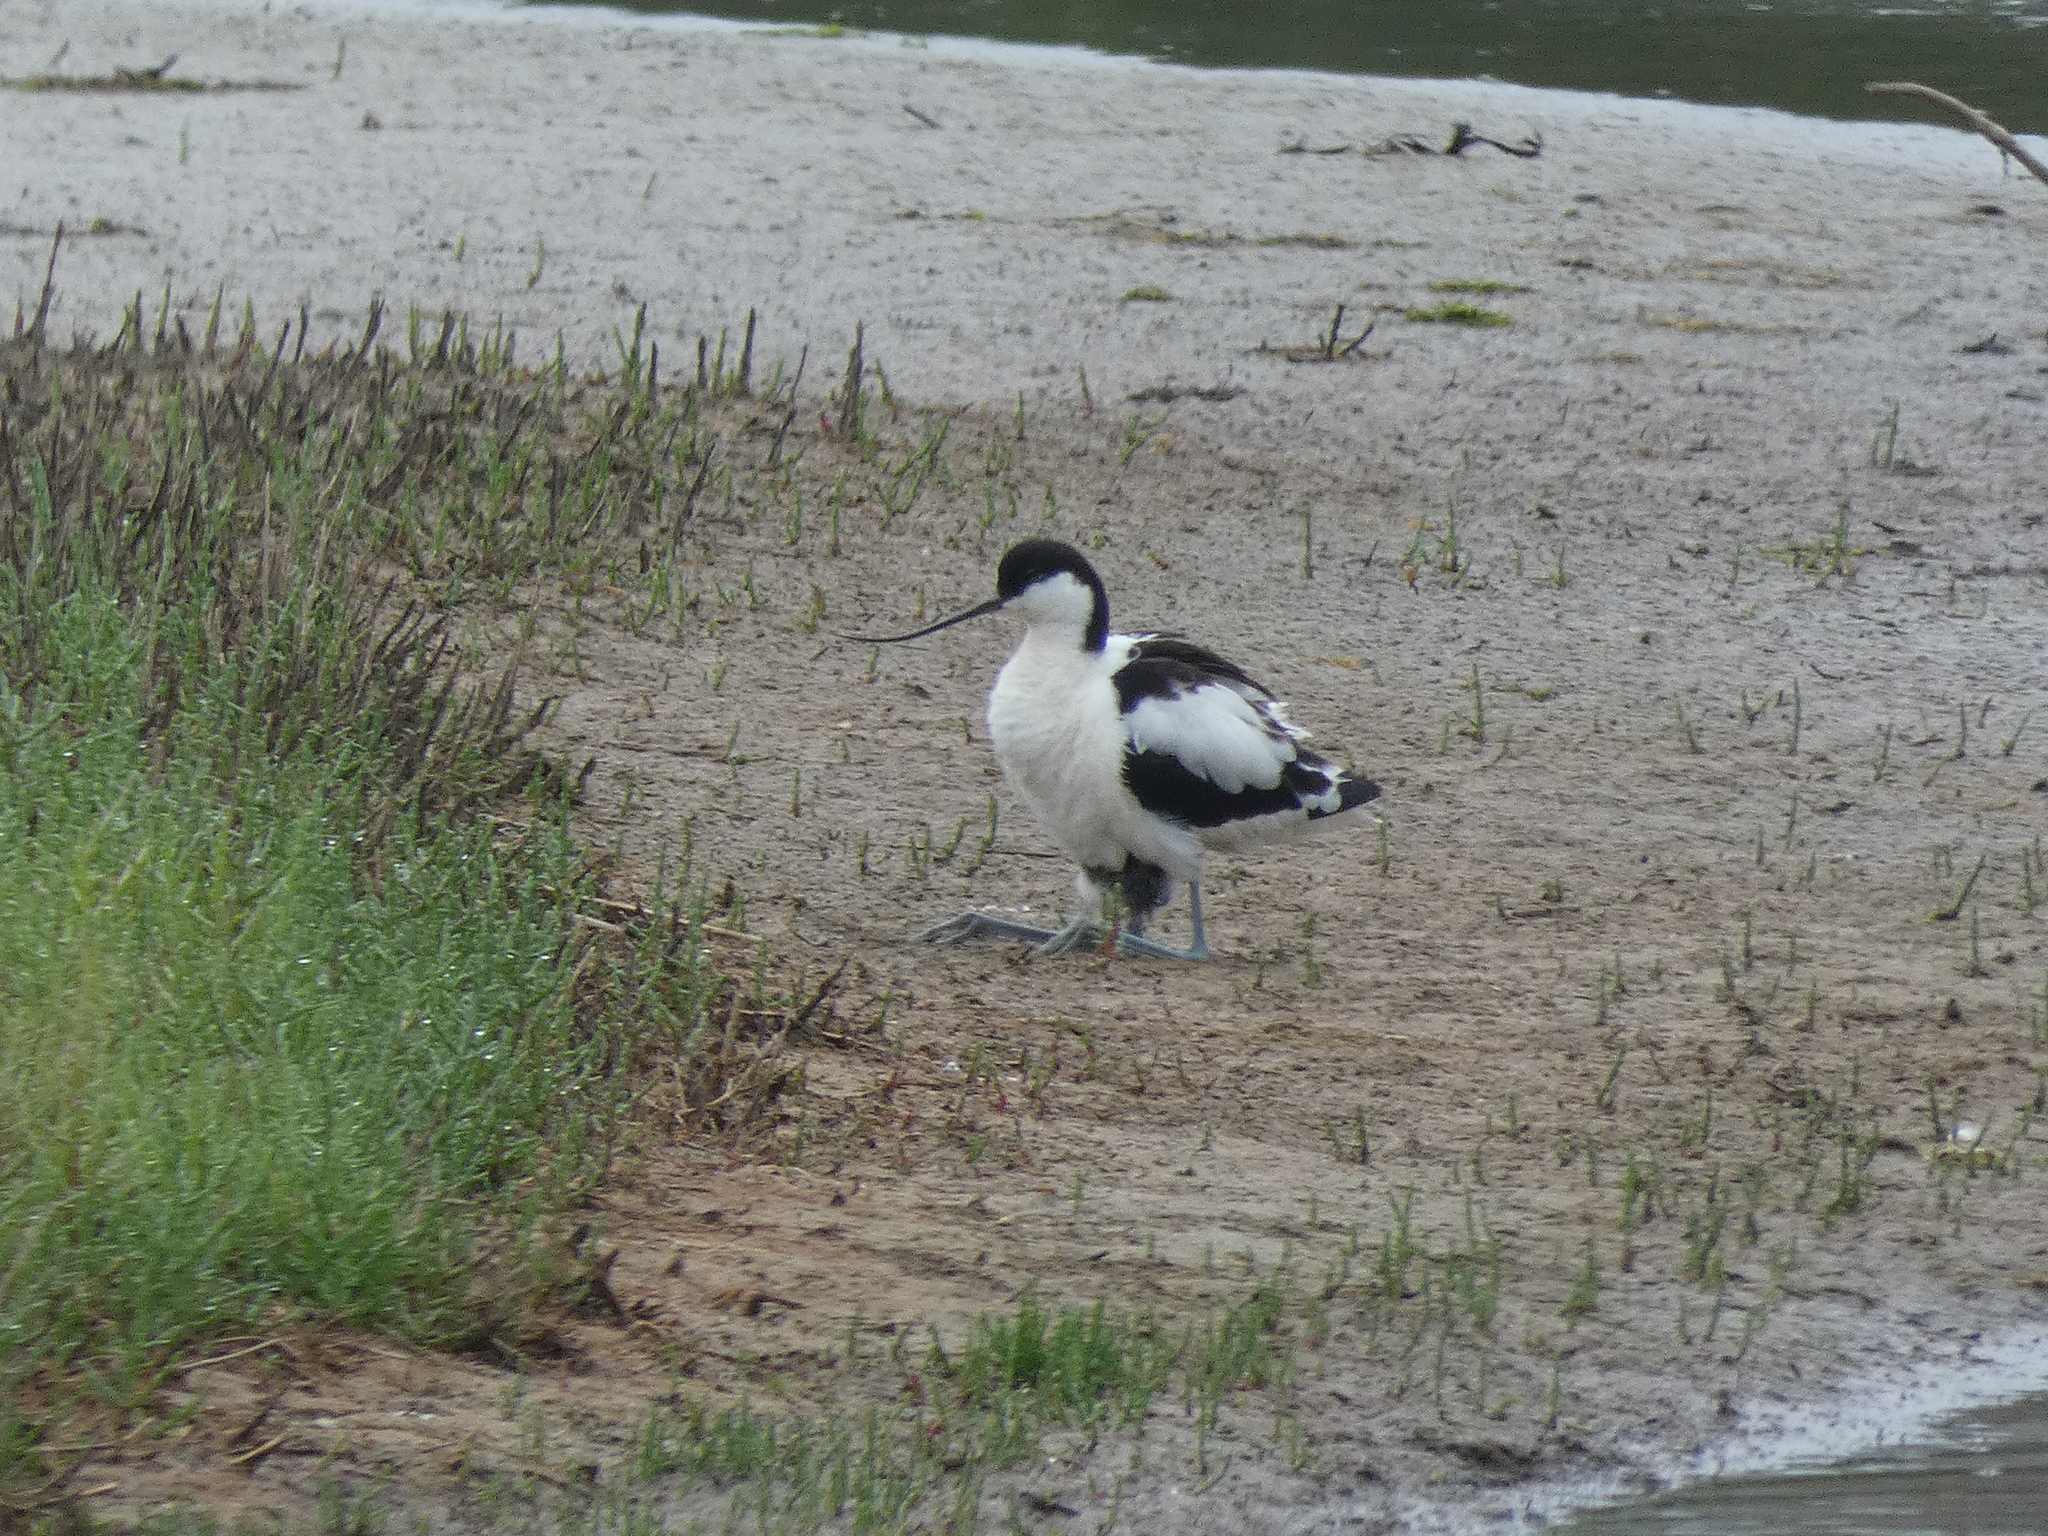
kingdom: Animalia
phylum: Chordata
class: Aves
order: Charadriiformes
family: Recurvirostridae
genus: Recurvirostra
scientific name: Recurvirostra avosetta
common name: Pied avocet
